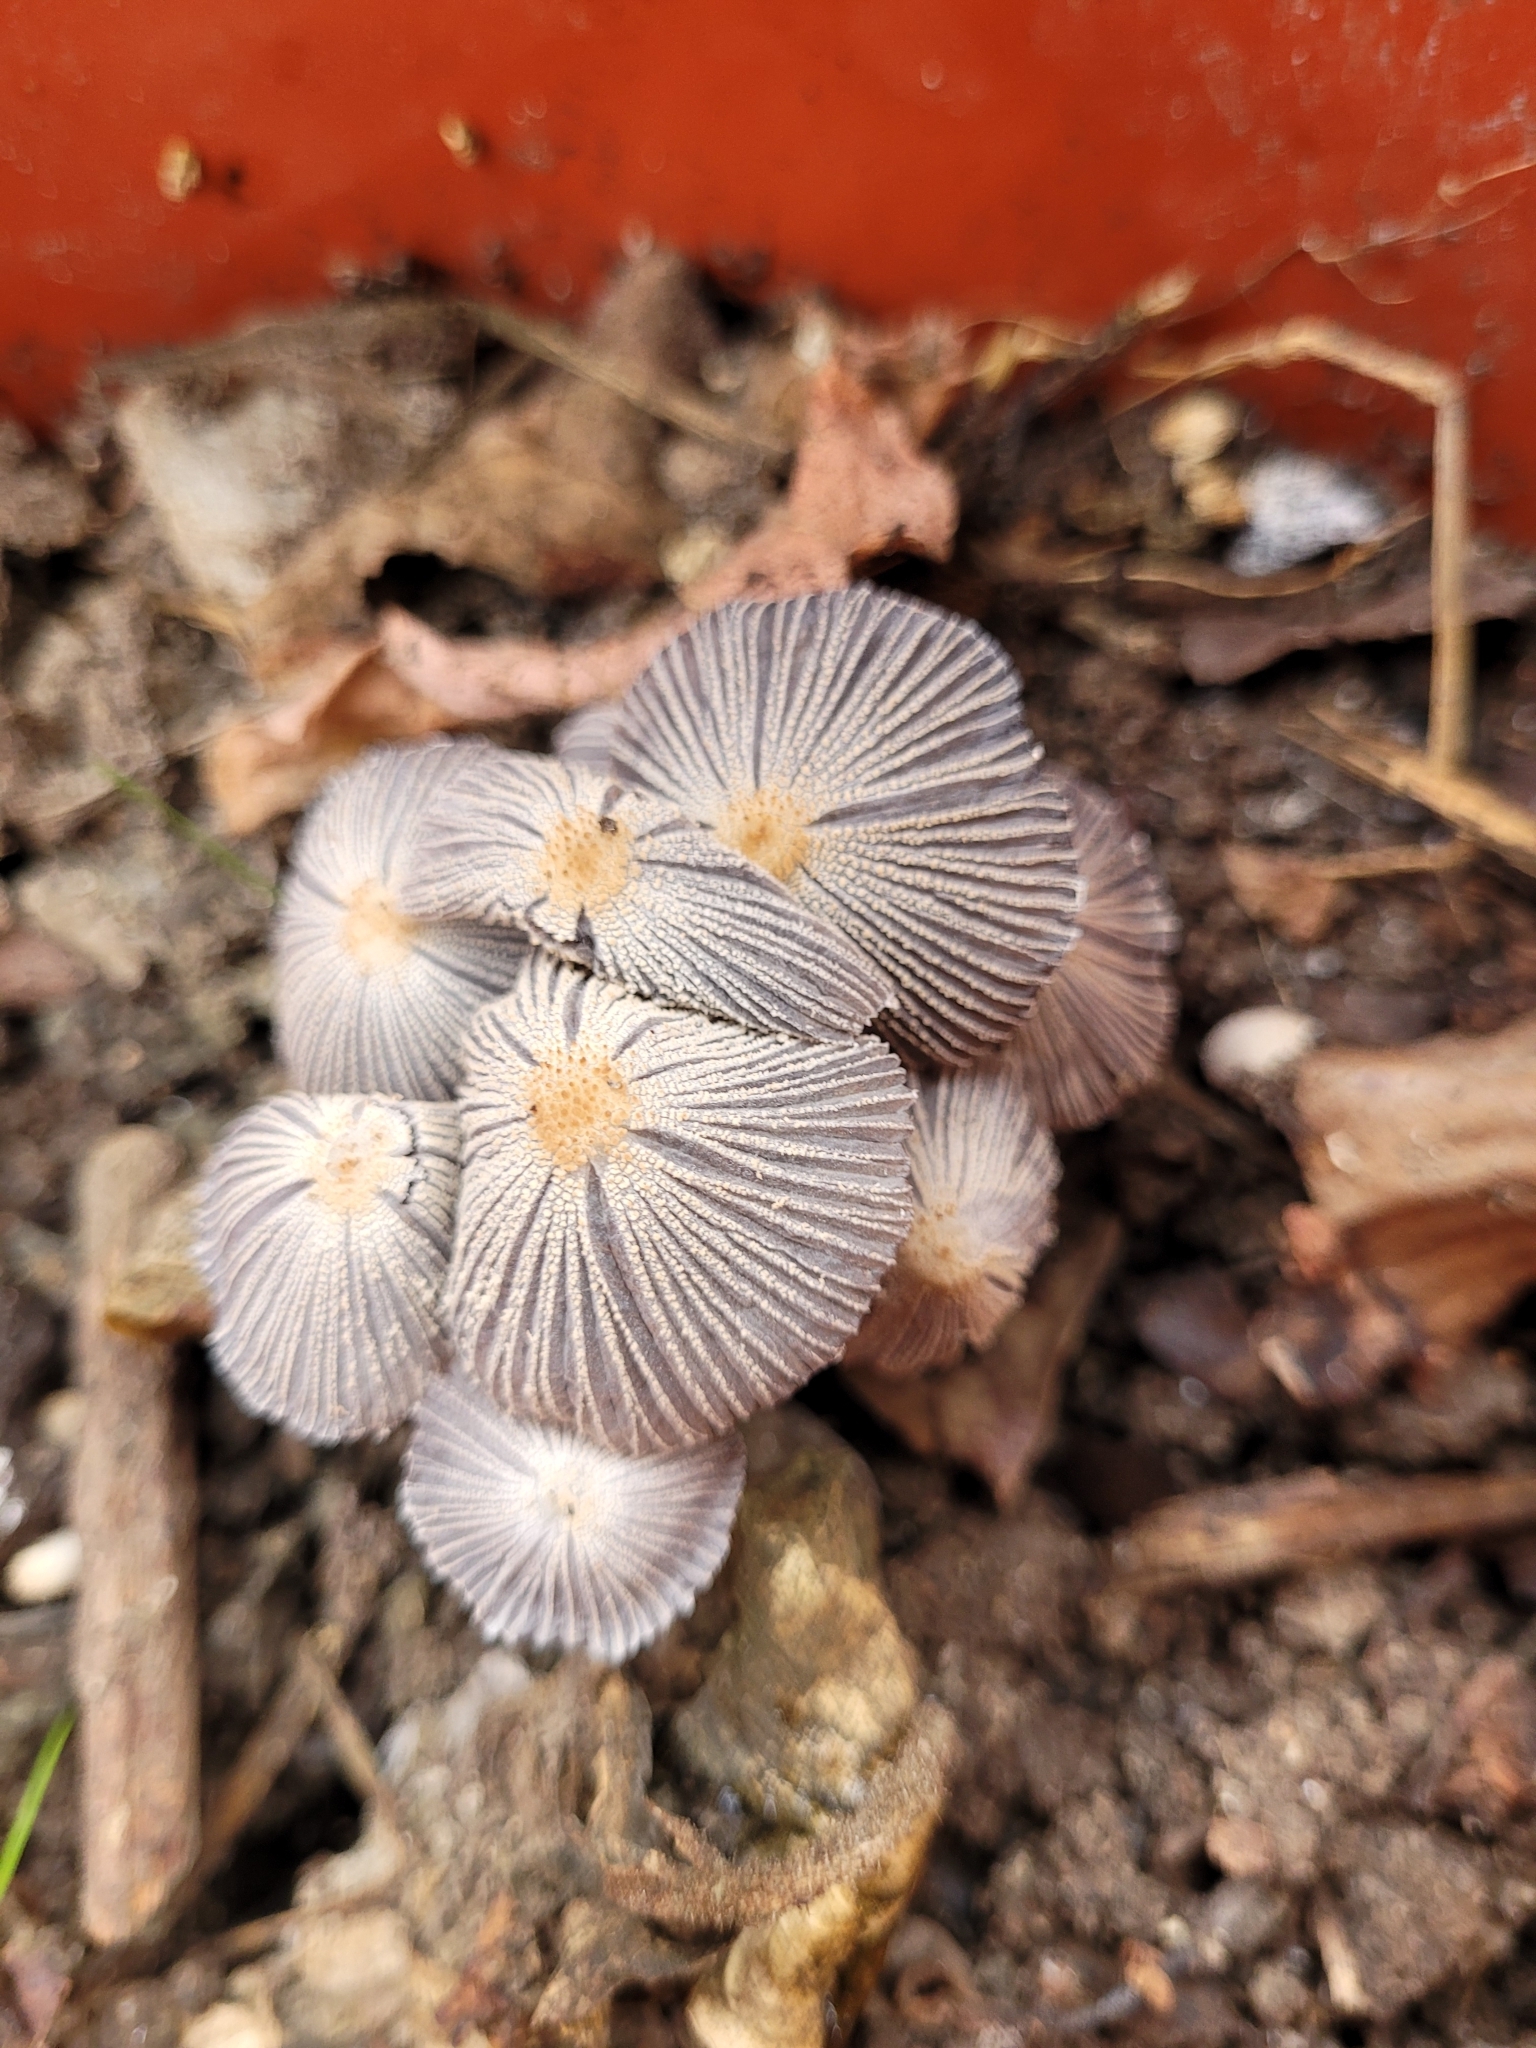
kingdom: Fungi
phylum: Basidiomycota
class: Agaricomycetes
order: Agaricales
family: Psathyrellaceae
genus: Narcissea
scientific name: Narcissea patouillardii
